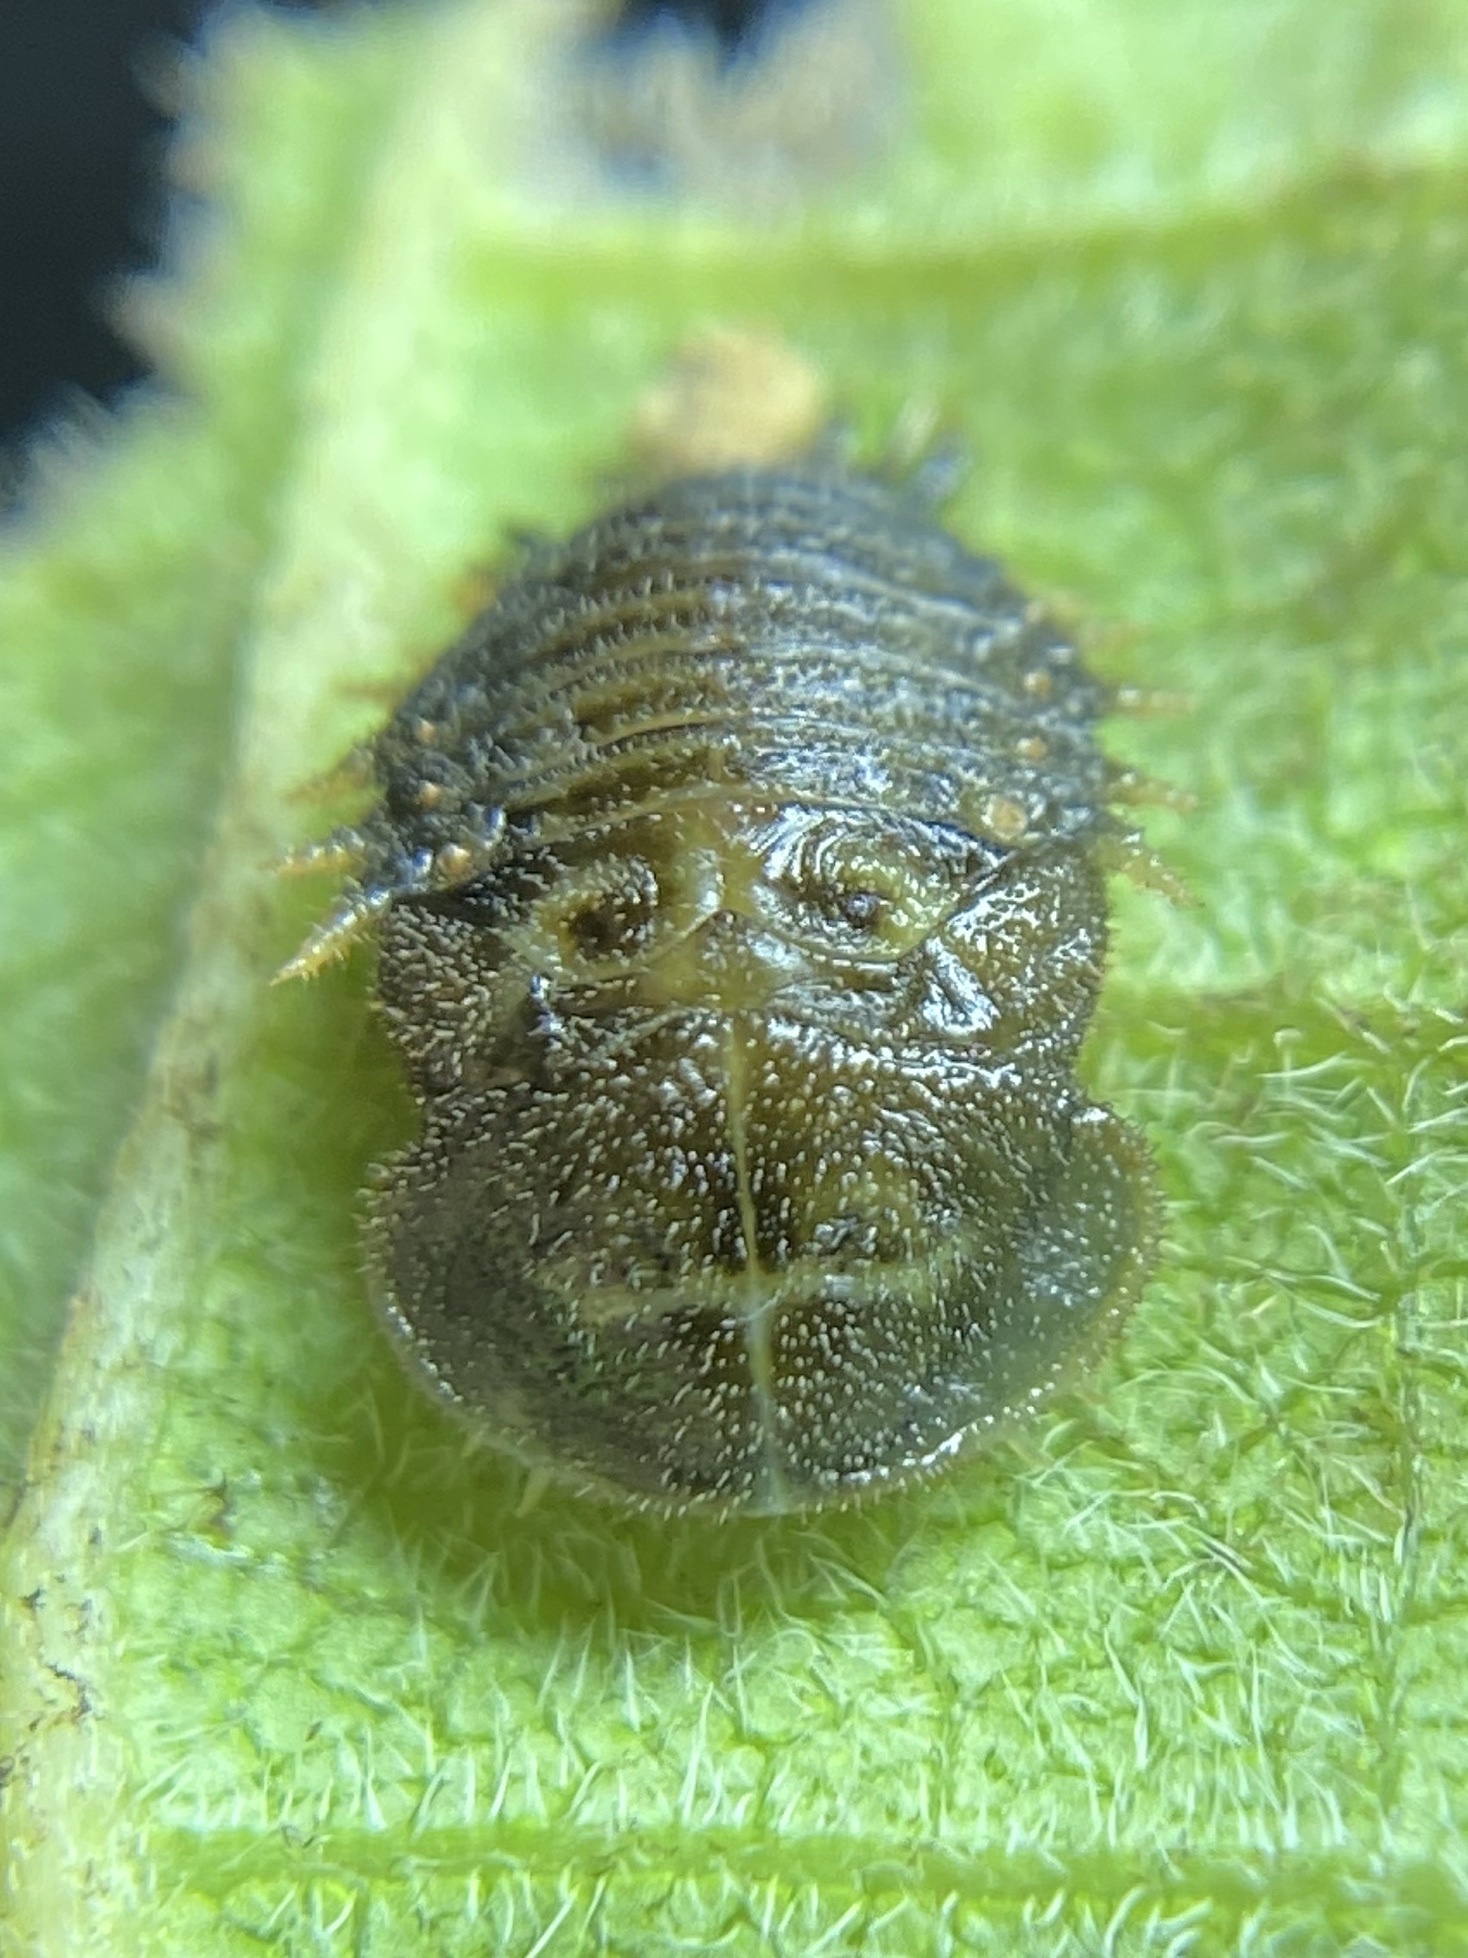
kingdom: Animalia
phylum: Arthropoda
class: Insecta
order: Coleoptera
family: Chrysomelidae
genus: Eurypepla
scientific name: Eurypepla calochroma
